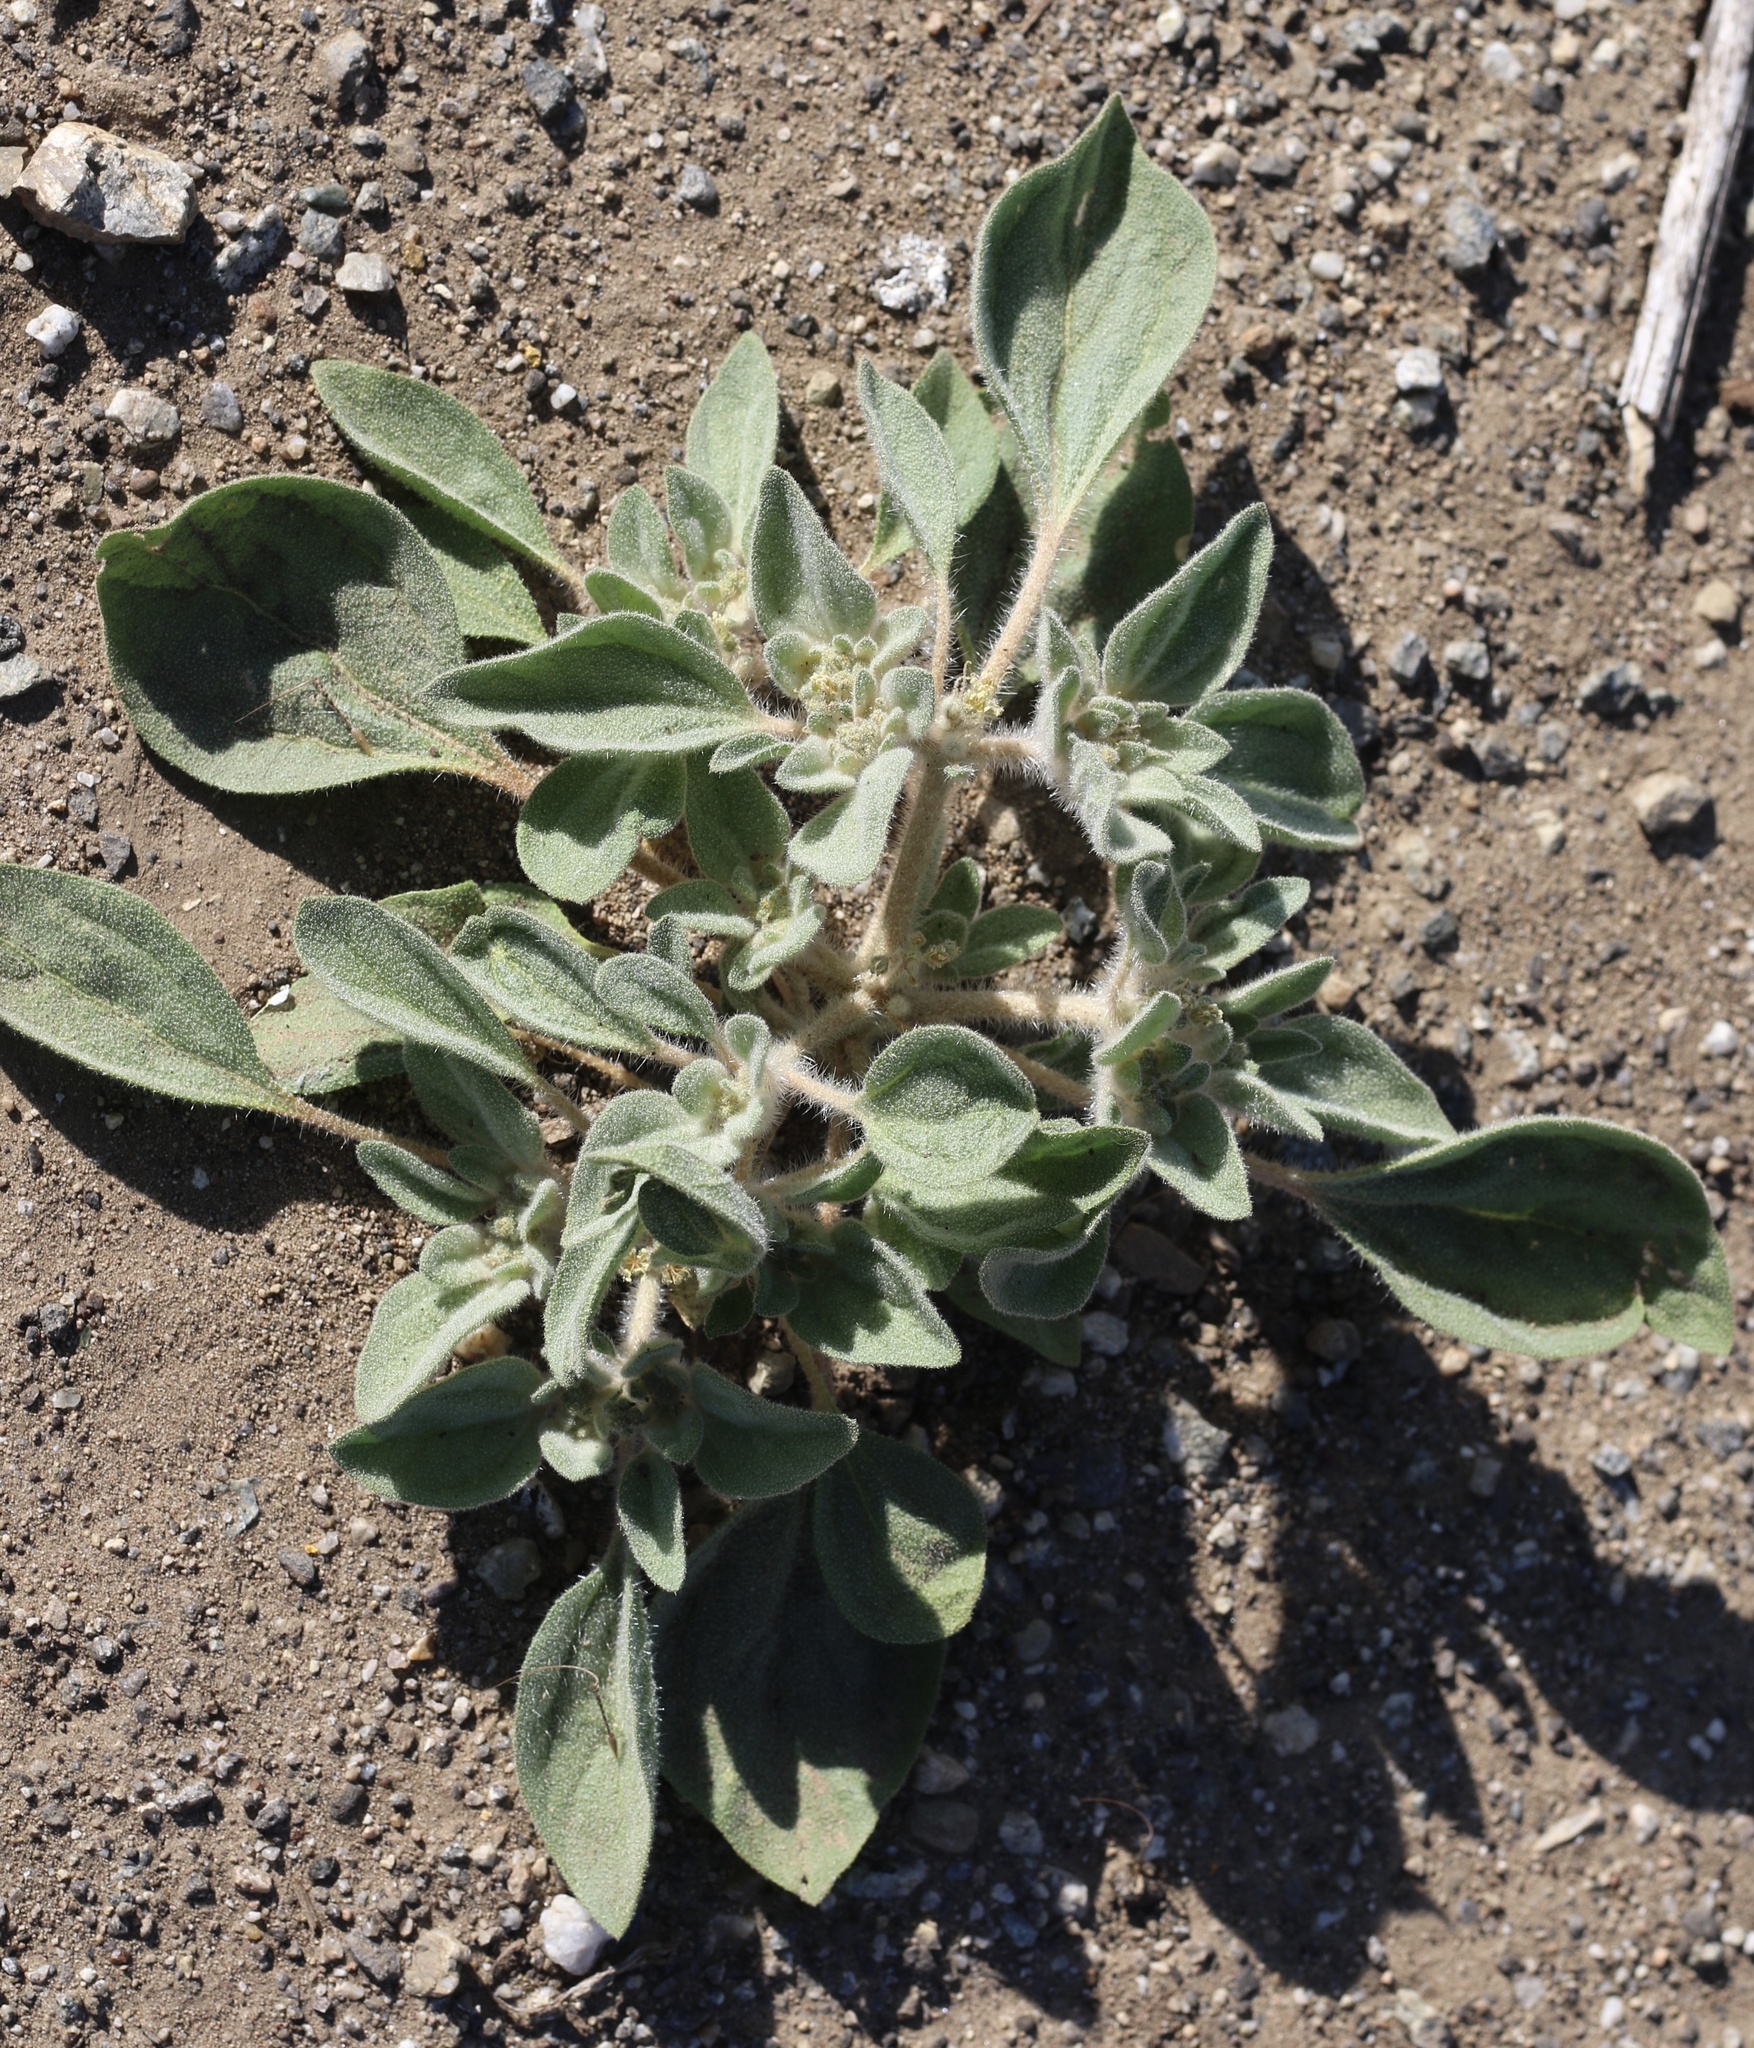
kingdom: Plantae
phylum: Tracheophyta
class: Magnoliopsida
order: Malpighiales
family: Euphorbiaceae
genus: Croton
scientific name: Croton setiger
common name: Dove weed
